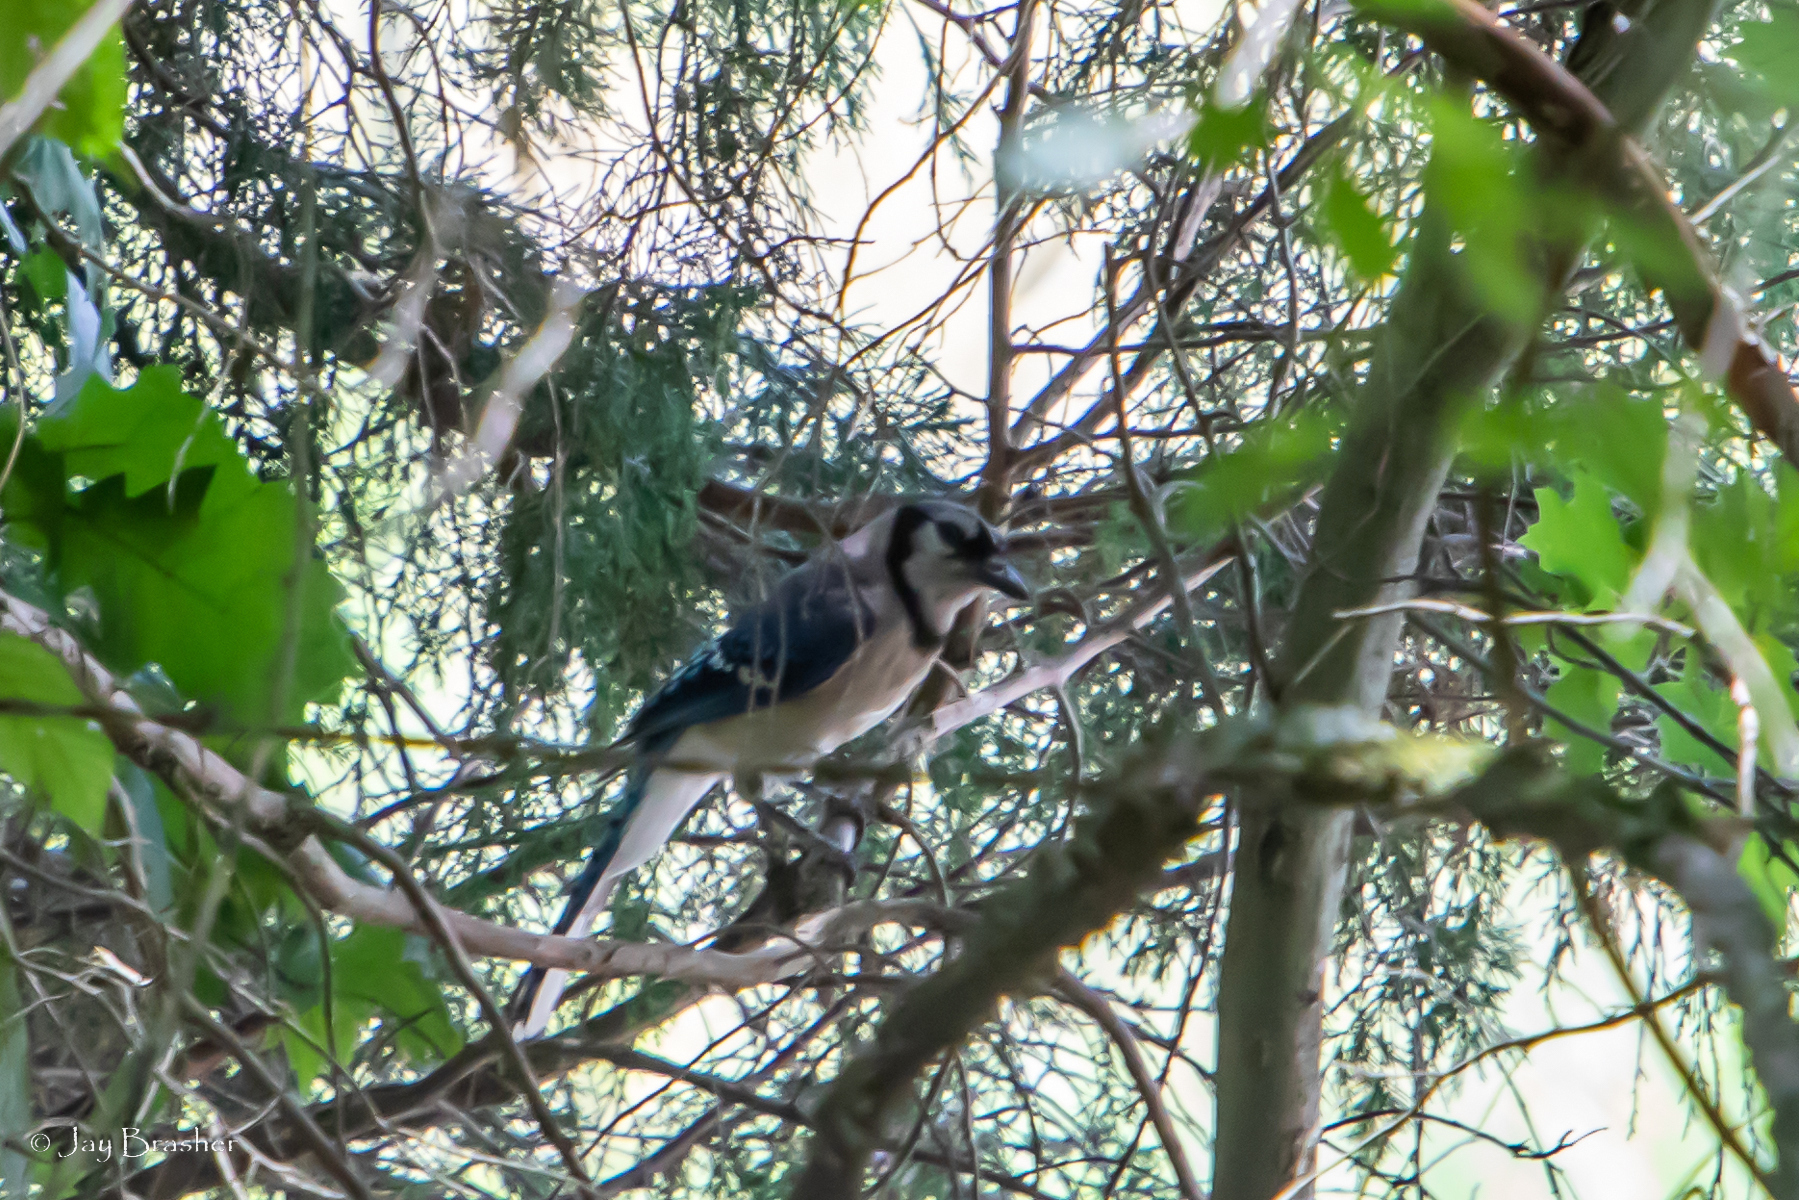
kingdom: Animalia
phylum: Chordata
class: Aves
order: Passeriformes
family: Corvidae
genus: Cyanocitta
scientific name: Cyanocitta cristata
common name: Blue jay
